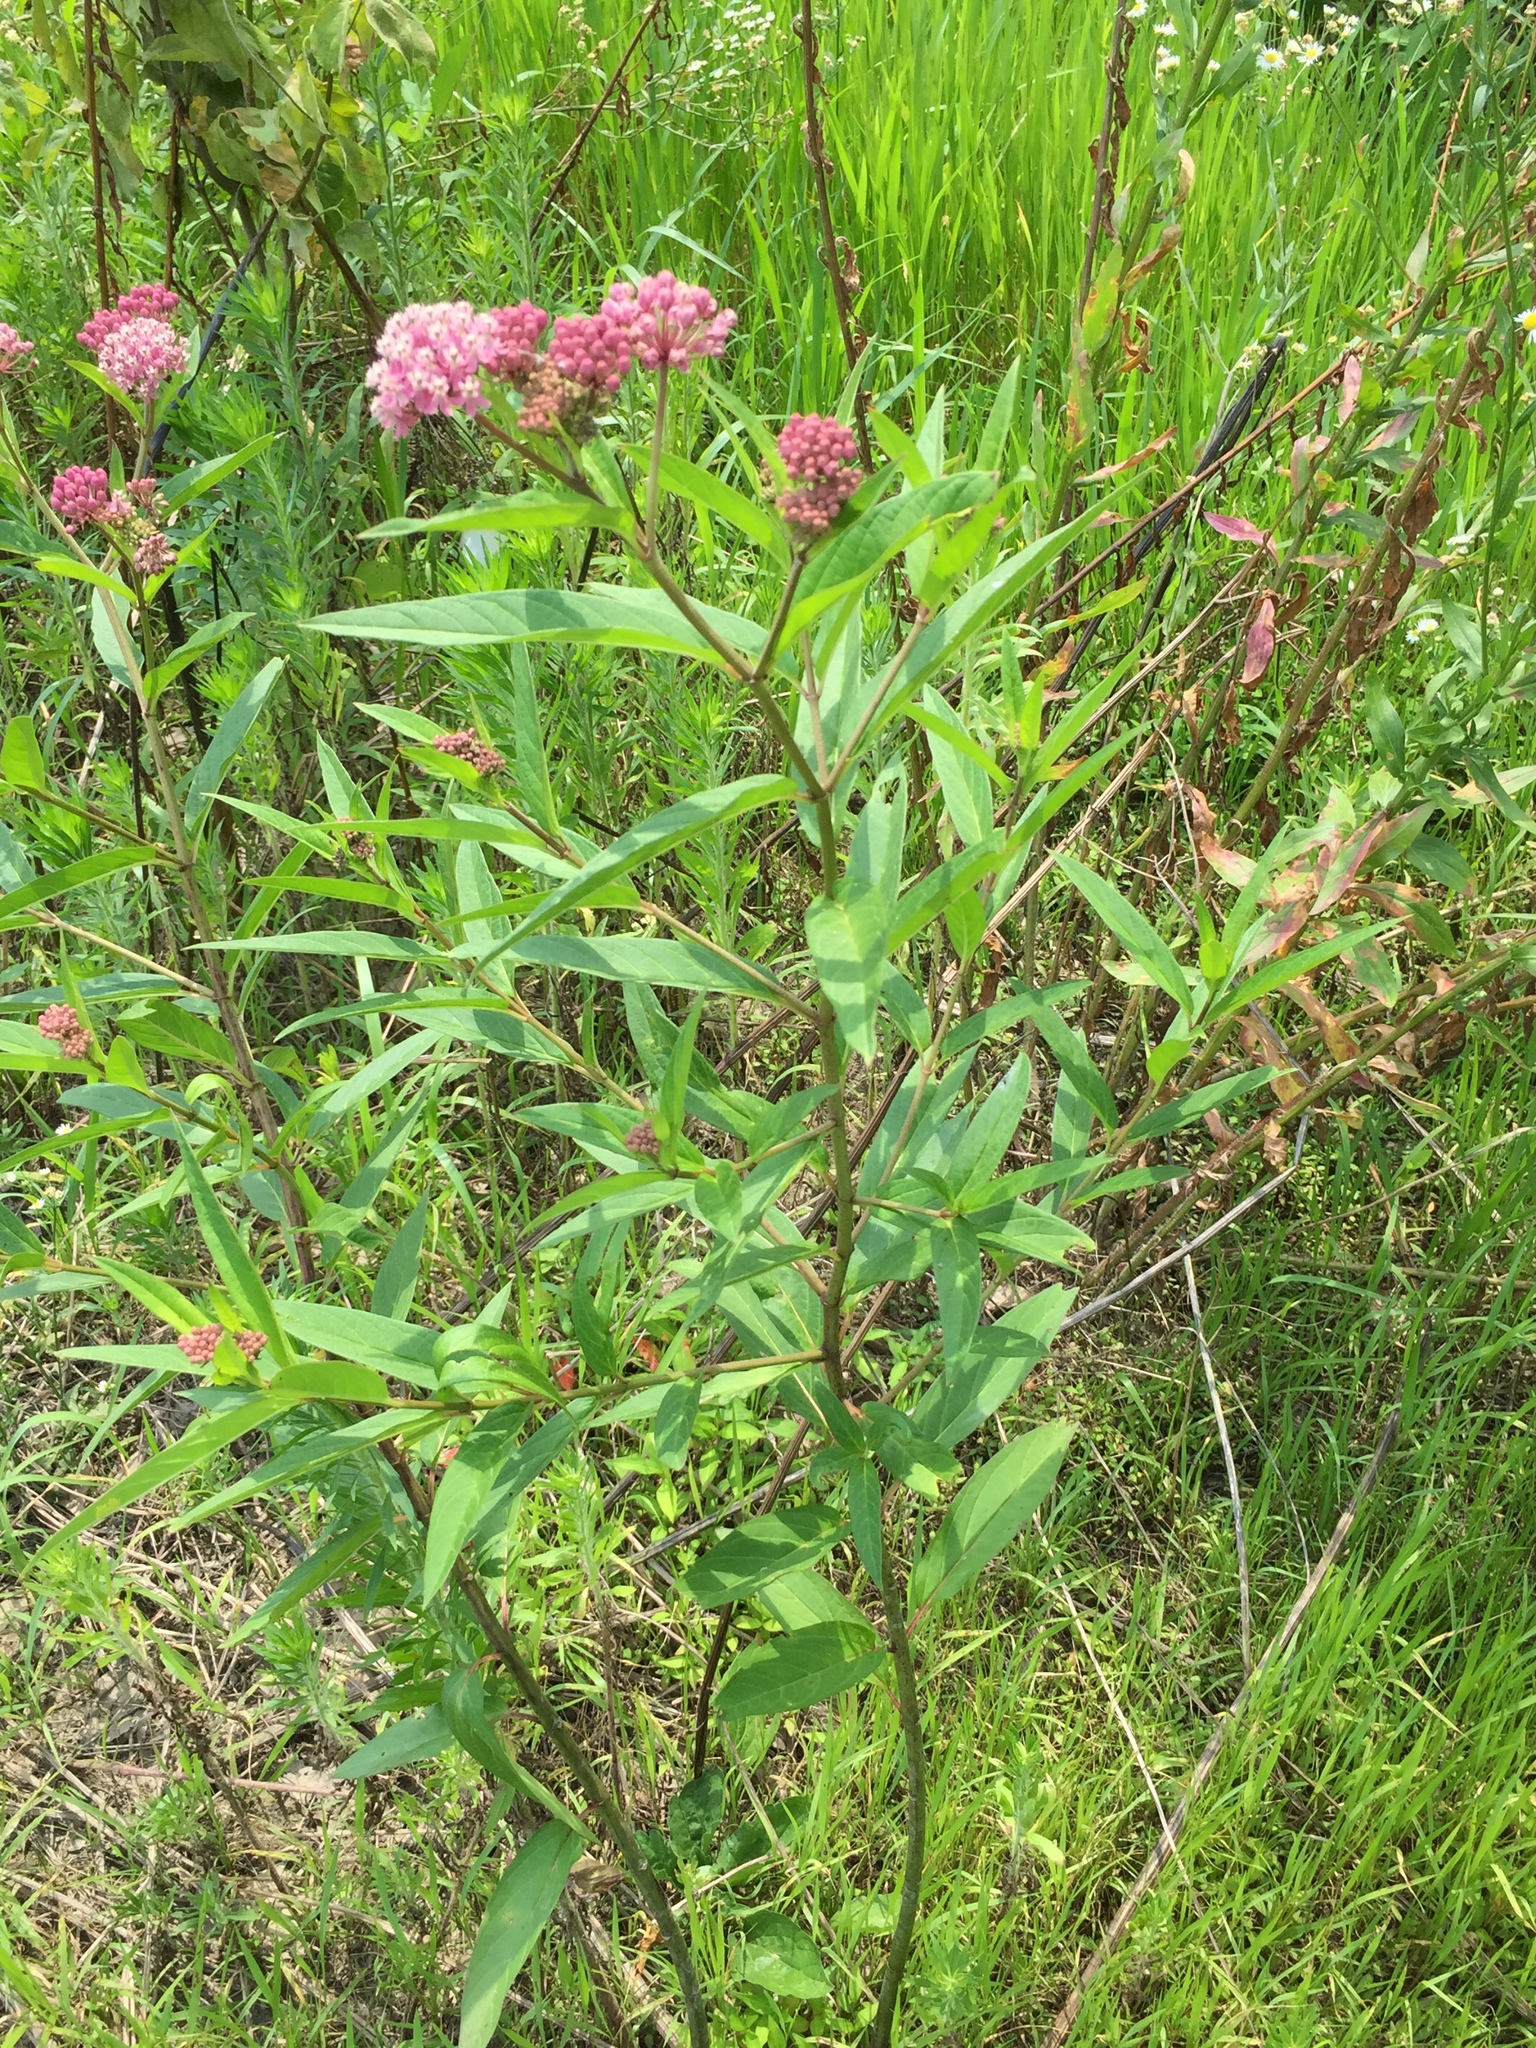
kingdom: Plantae
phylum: Tracheophyta
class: Magnoliopsida
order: Gentianales
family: Apocynaceae
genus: Asclepias
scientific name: Asclepias incarnata
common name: Swamp milkweed
